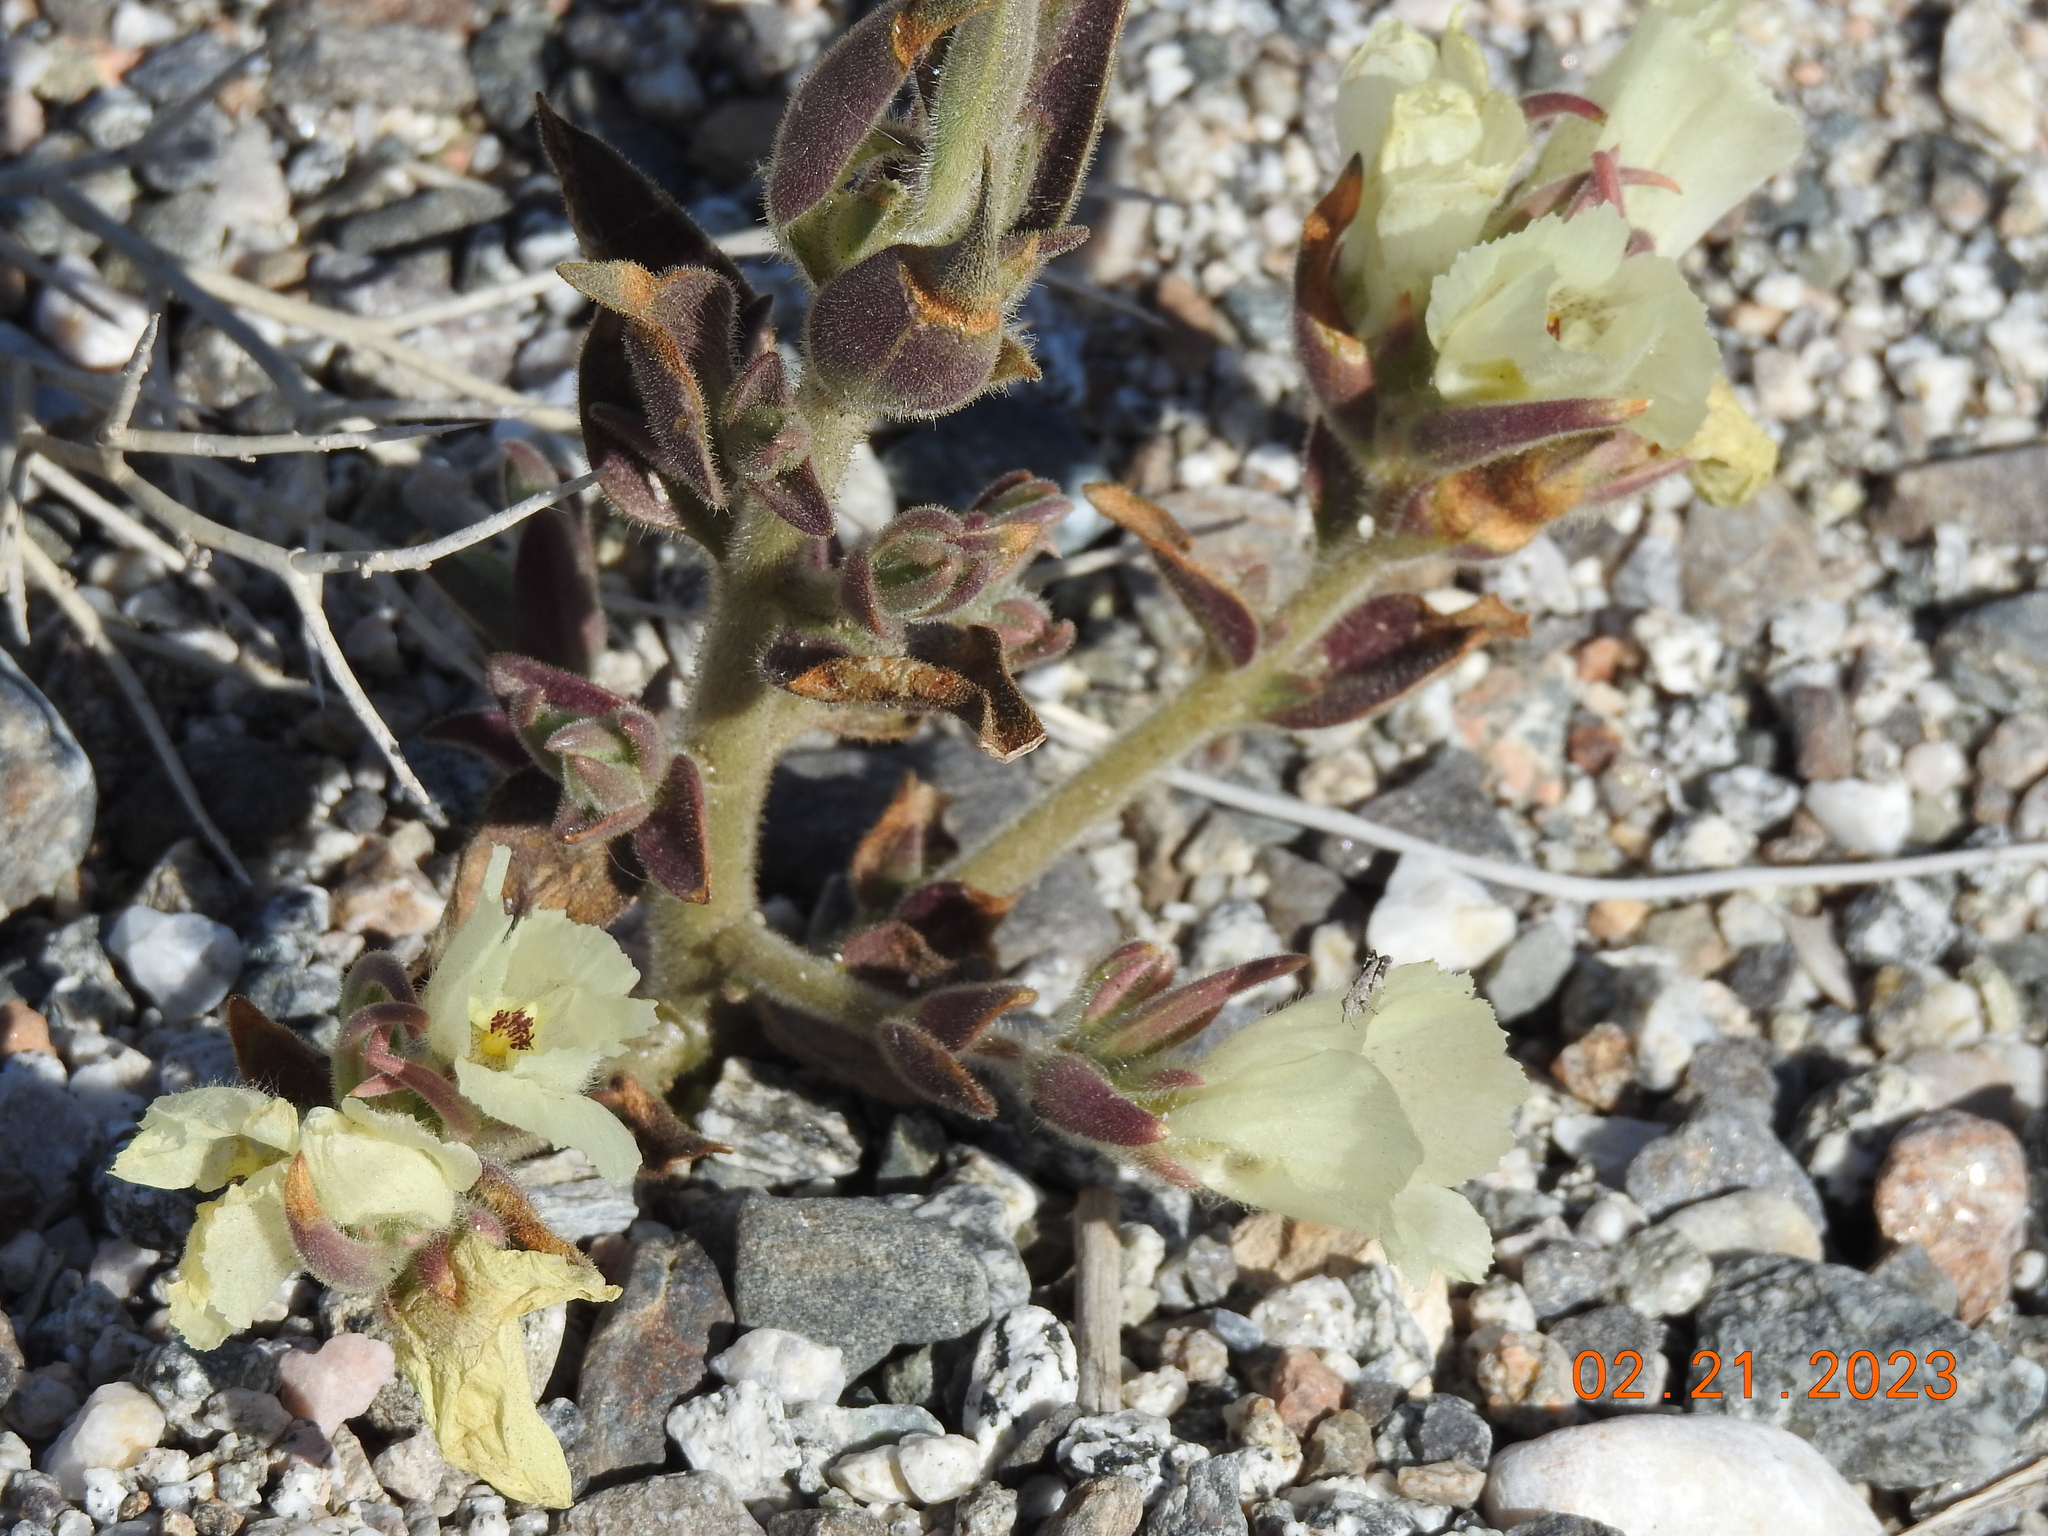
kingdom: Plantae
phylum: Tracheophyta
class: Magnoliopsida
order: Lamiales
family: Plantaginaceae
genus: Mohavea
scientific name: Mohavea confertiflora
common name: Ghost flower
